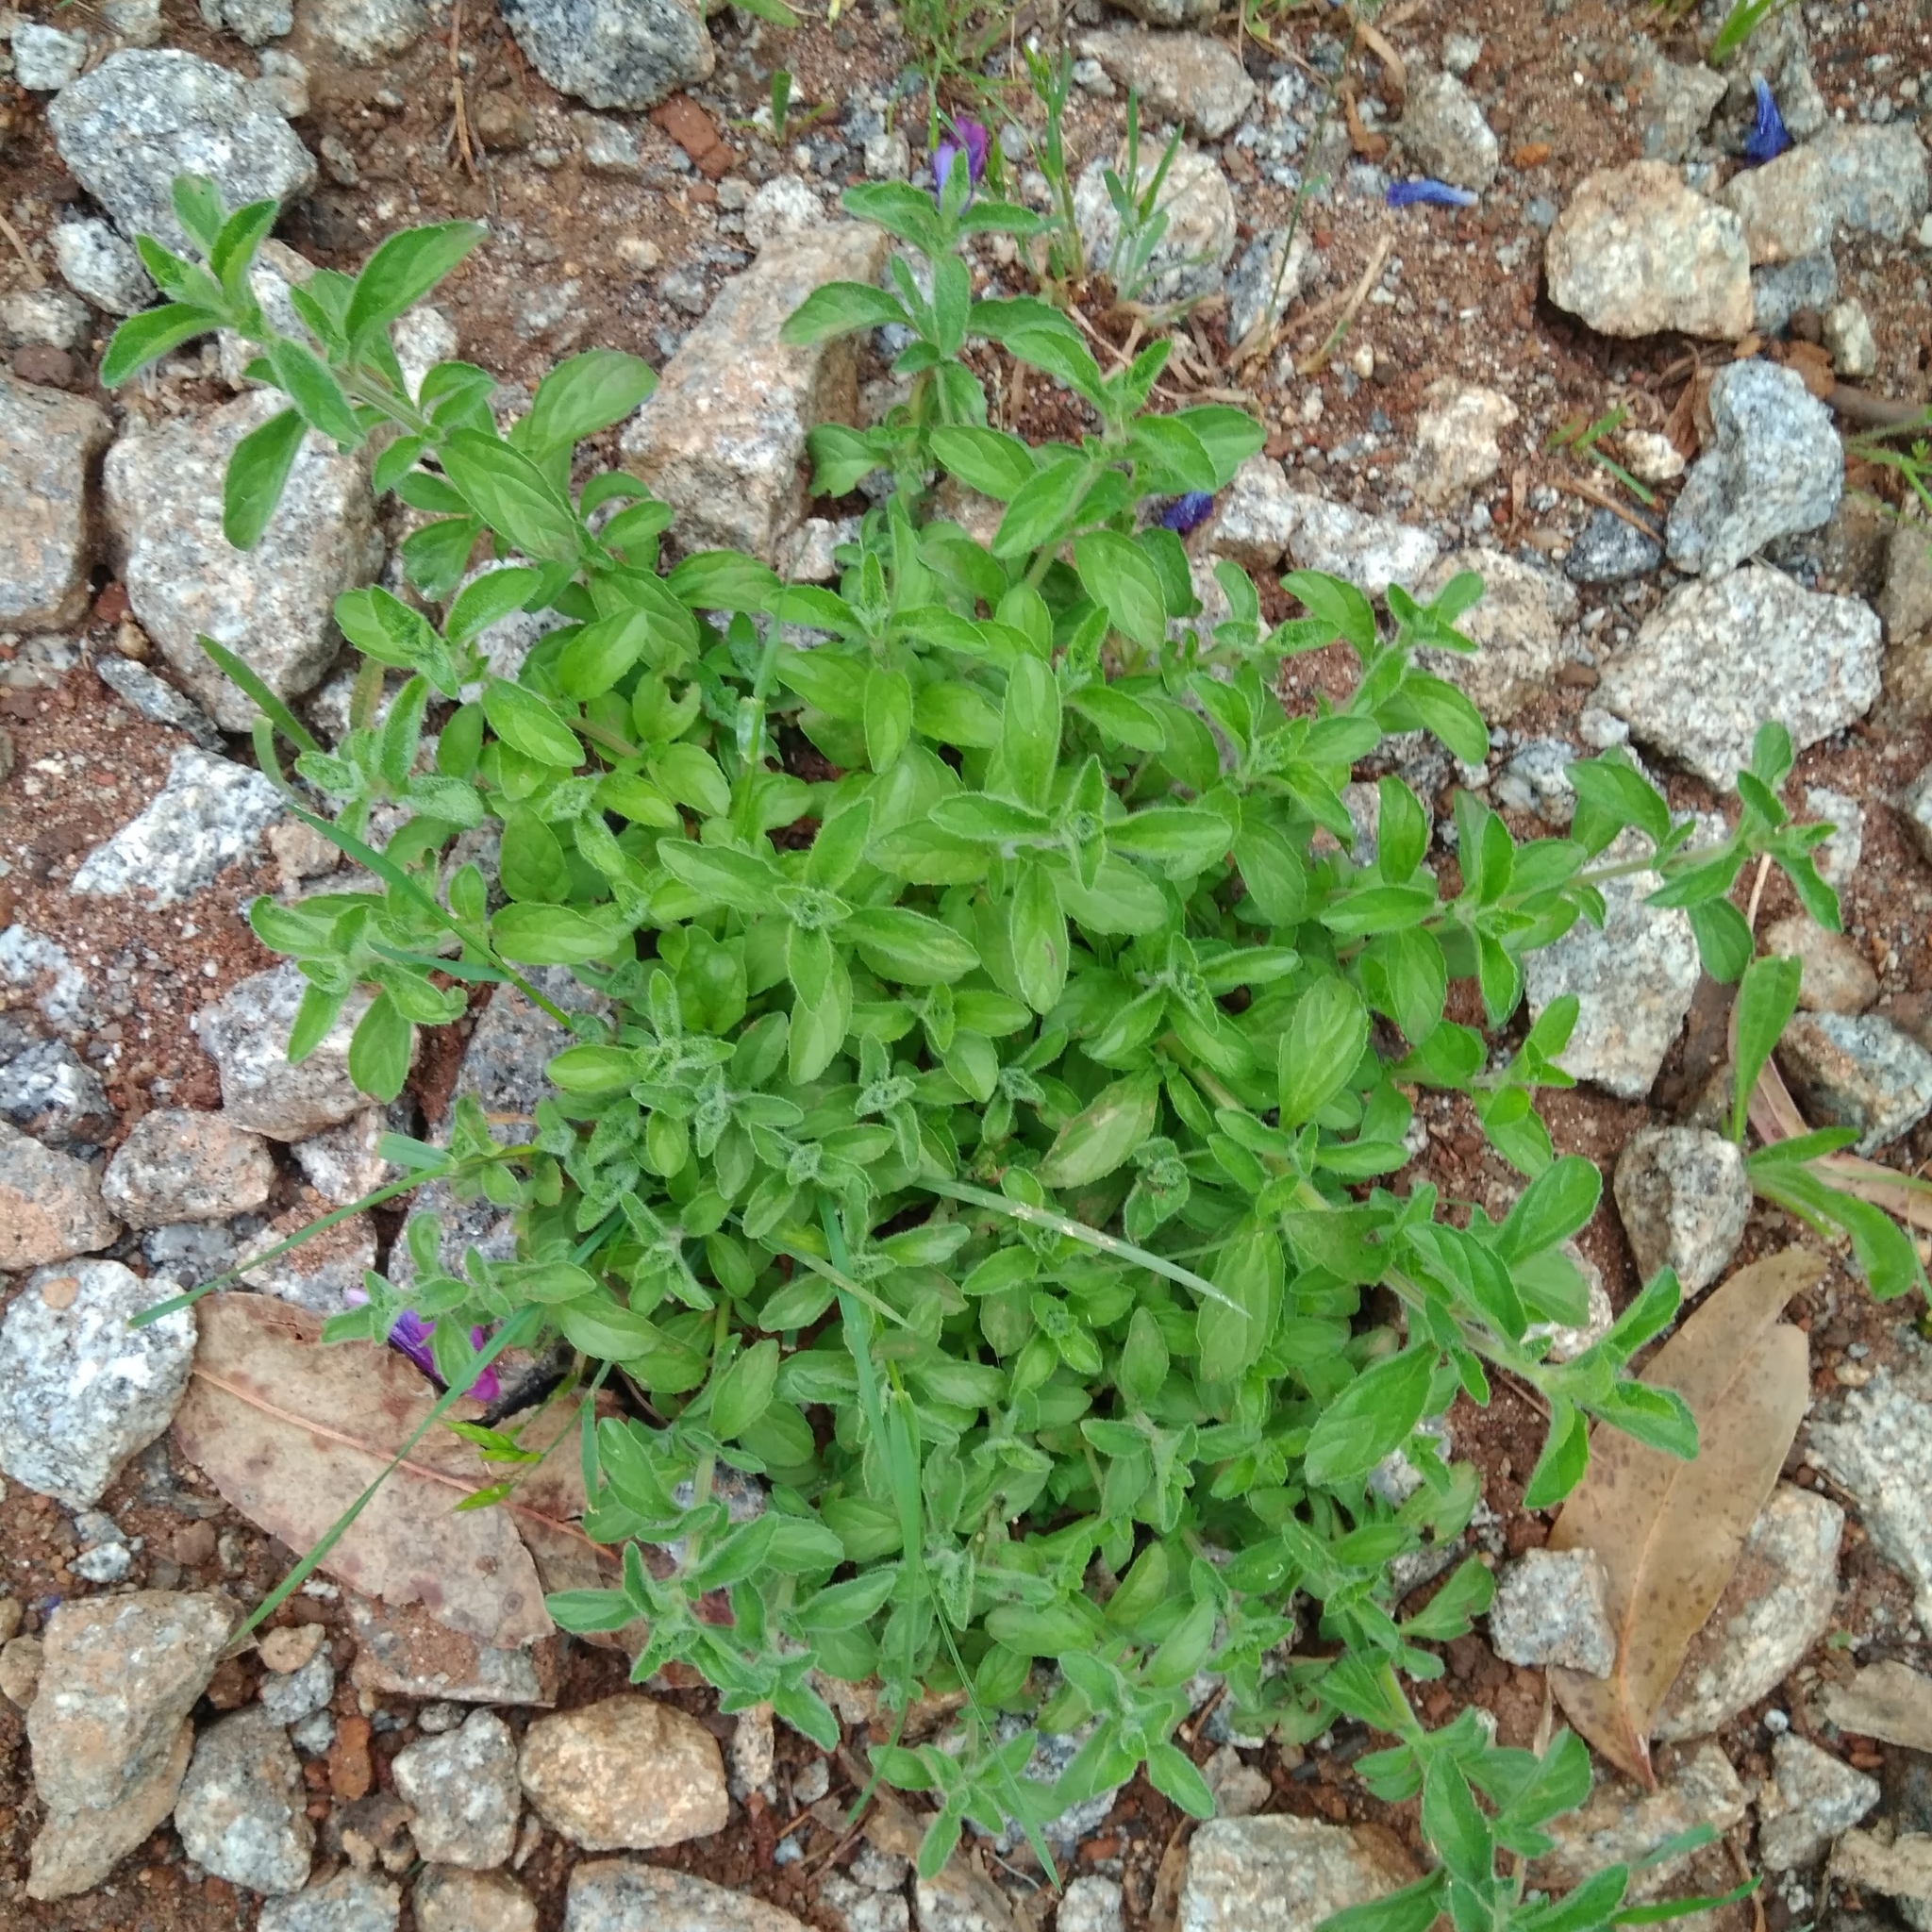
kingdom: Plantae
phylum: Tracheophyta
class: Magnoliopsida
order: Lamiales
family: Lamiaceae
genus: Mentha
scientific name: Mentha pulegium
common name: Pennyroyal
